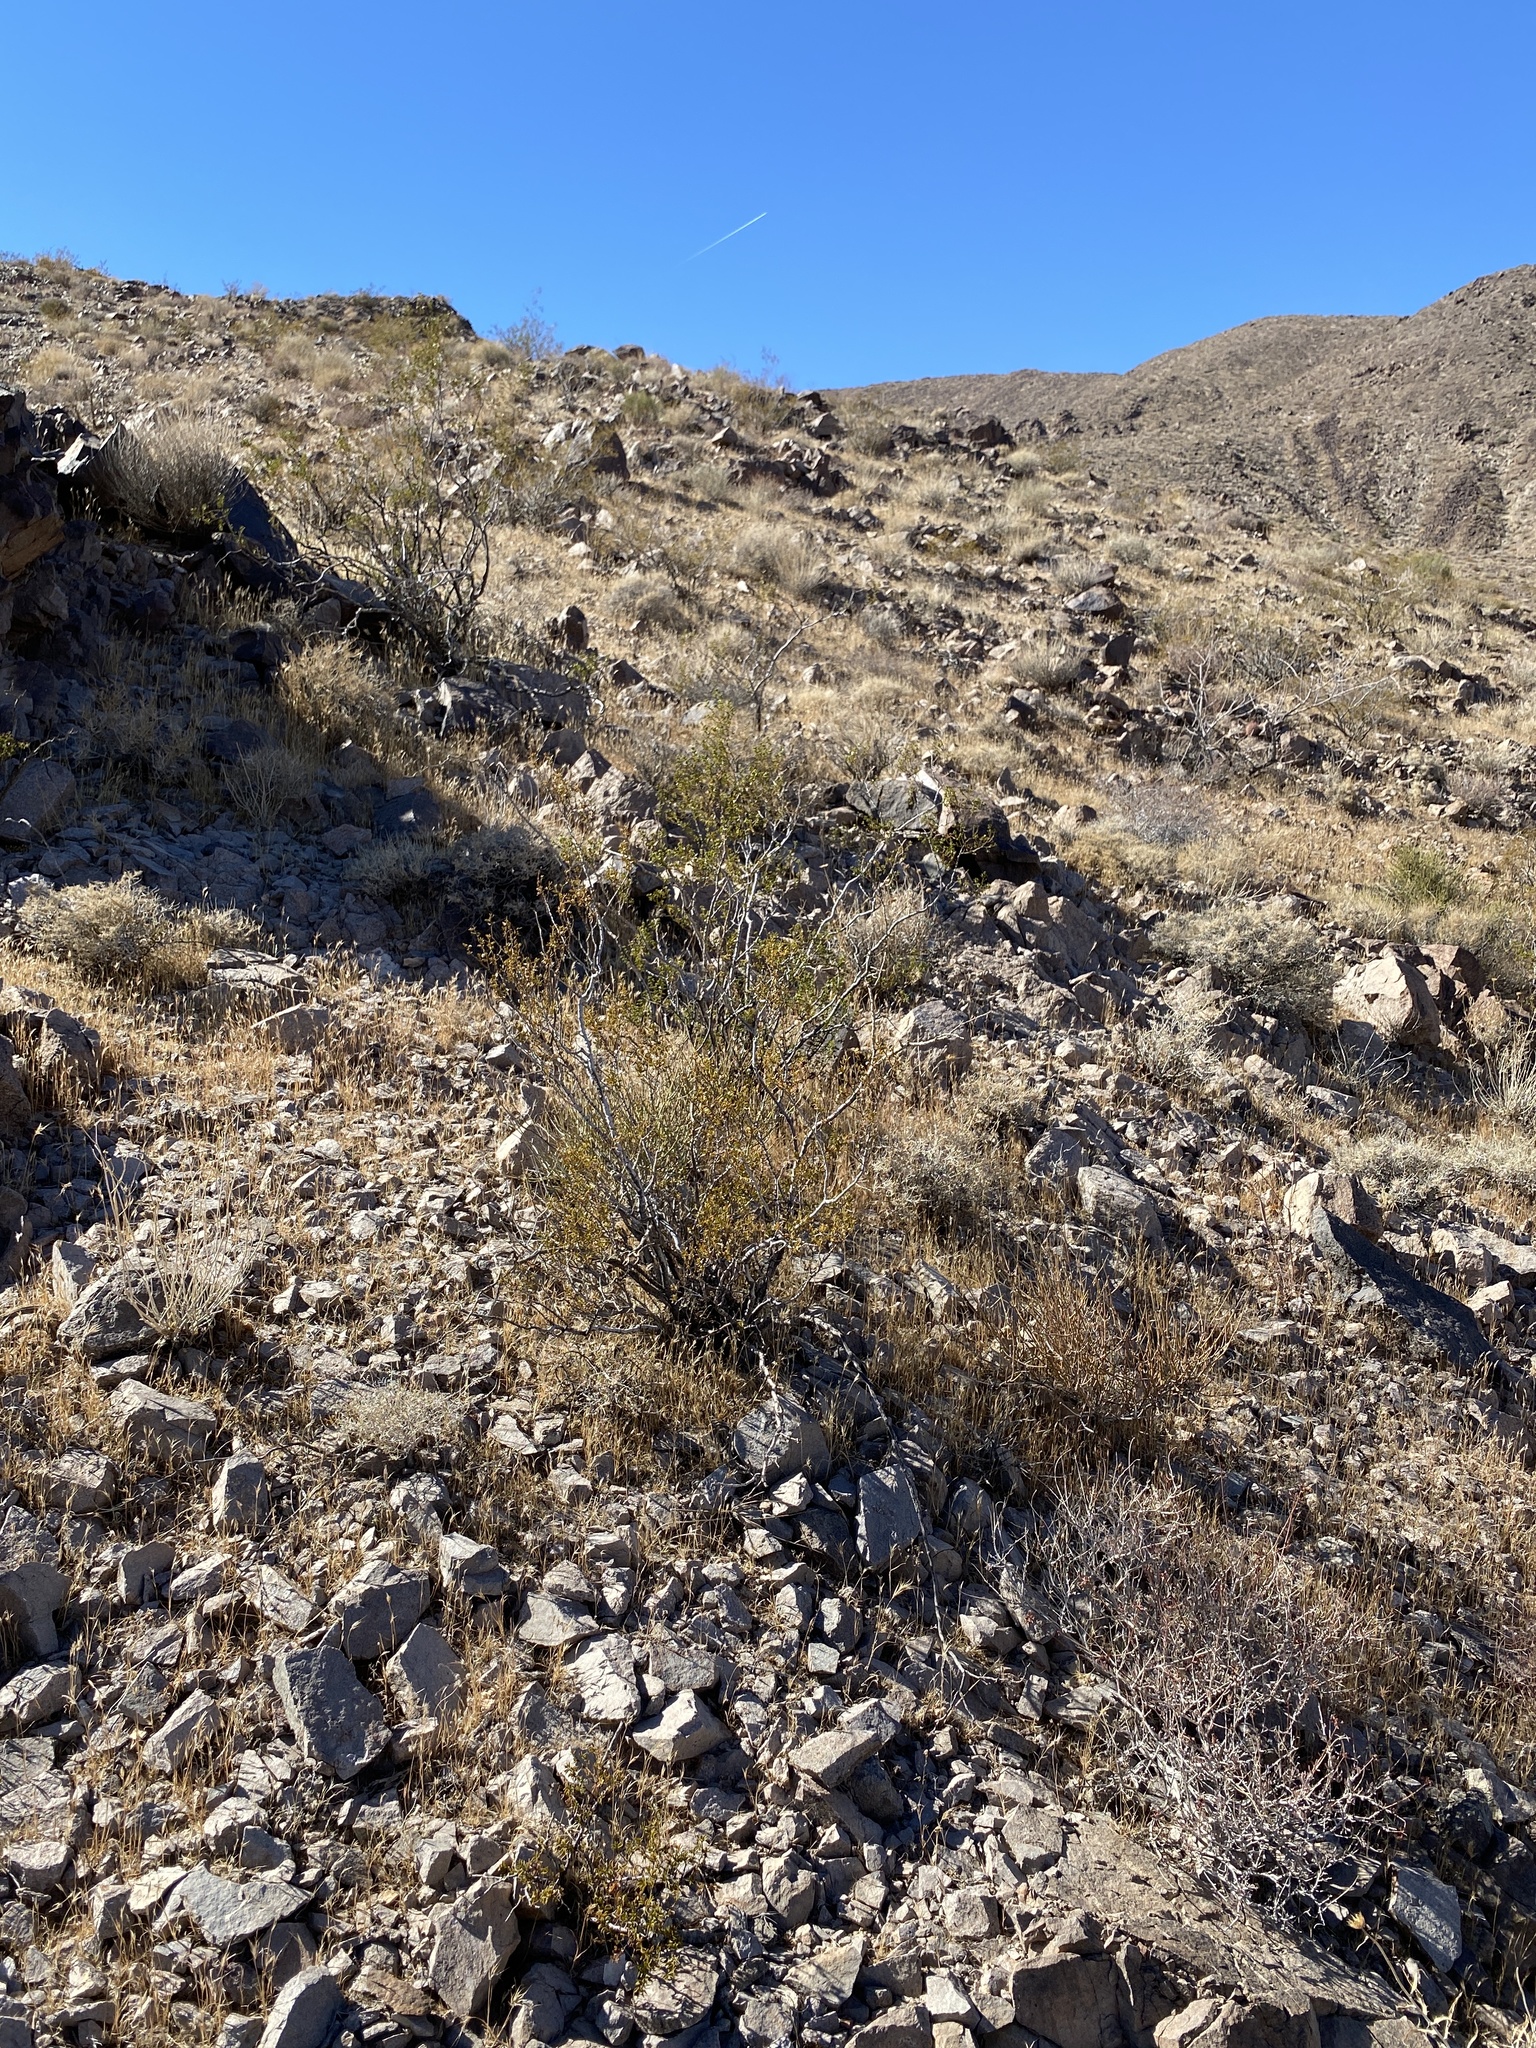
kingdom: Plantae
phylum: Tracheophyta
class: Magnoliopsida
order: Zygophyllales
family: Zygophyllaceae
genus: Larrea
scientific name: Larrea tridentata
